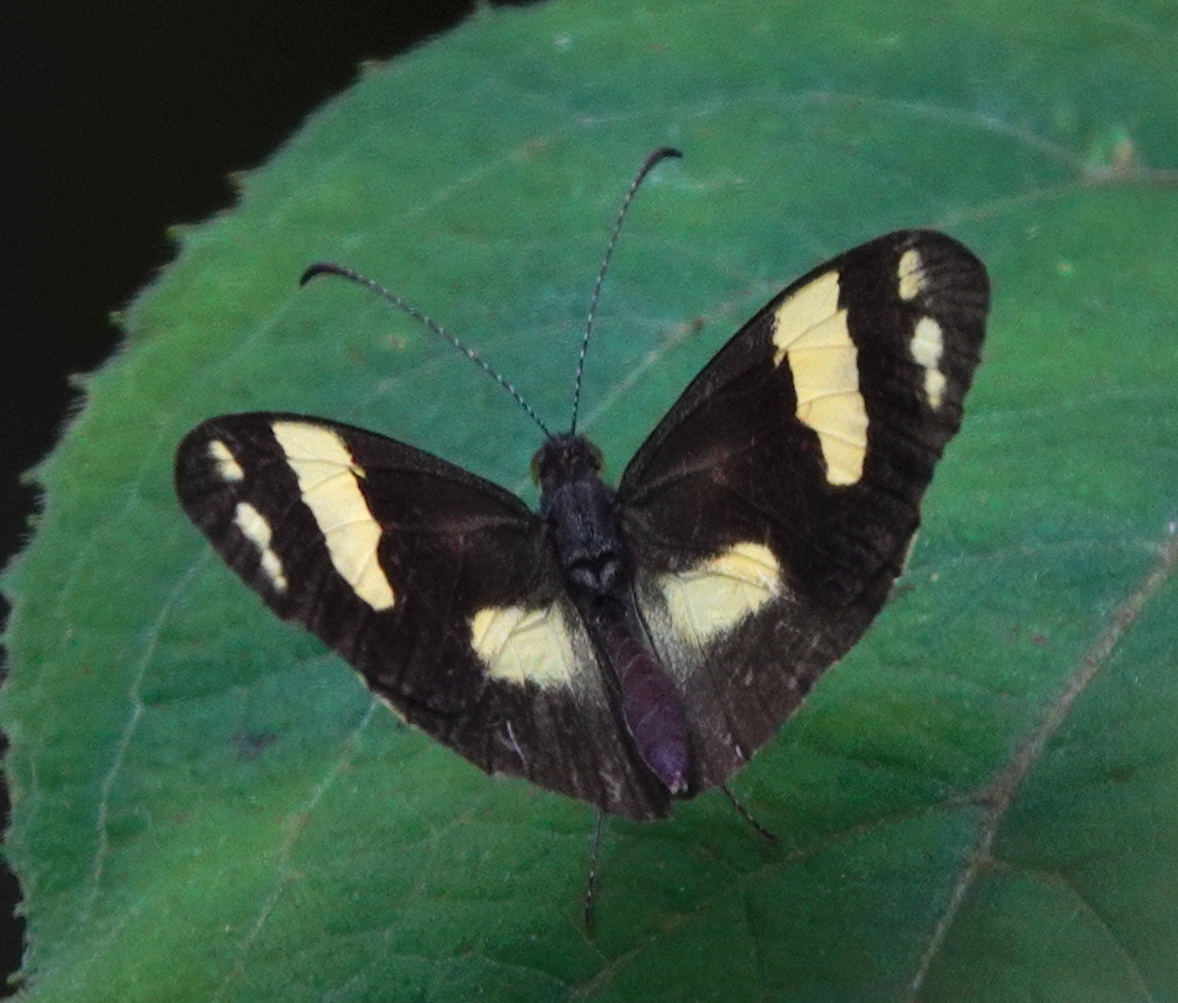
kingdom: Animalia
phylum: Arthropoda
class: Insecta
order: Lepidoptera
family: Pieridae
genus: Dismorphia
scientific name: Dismorphia medora
